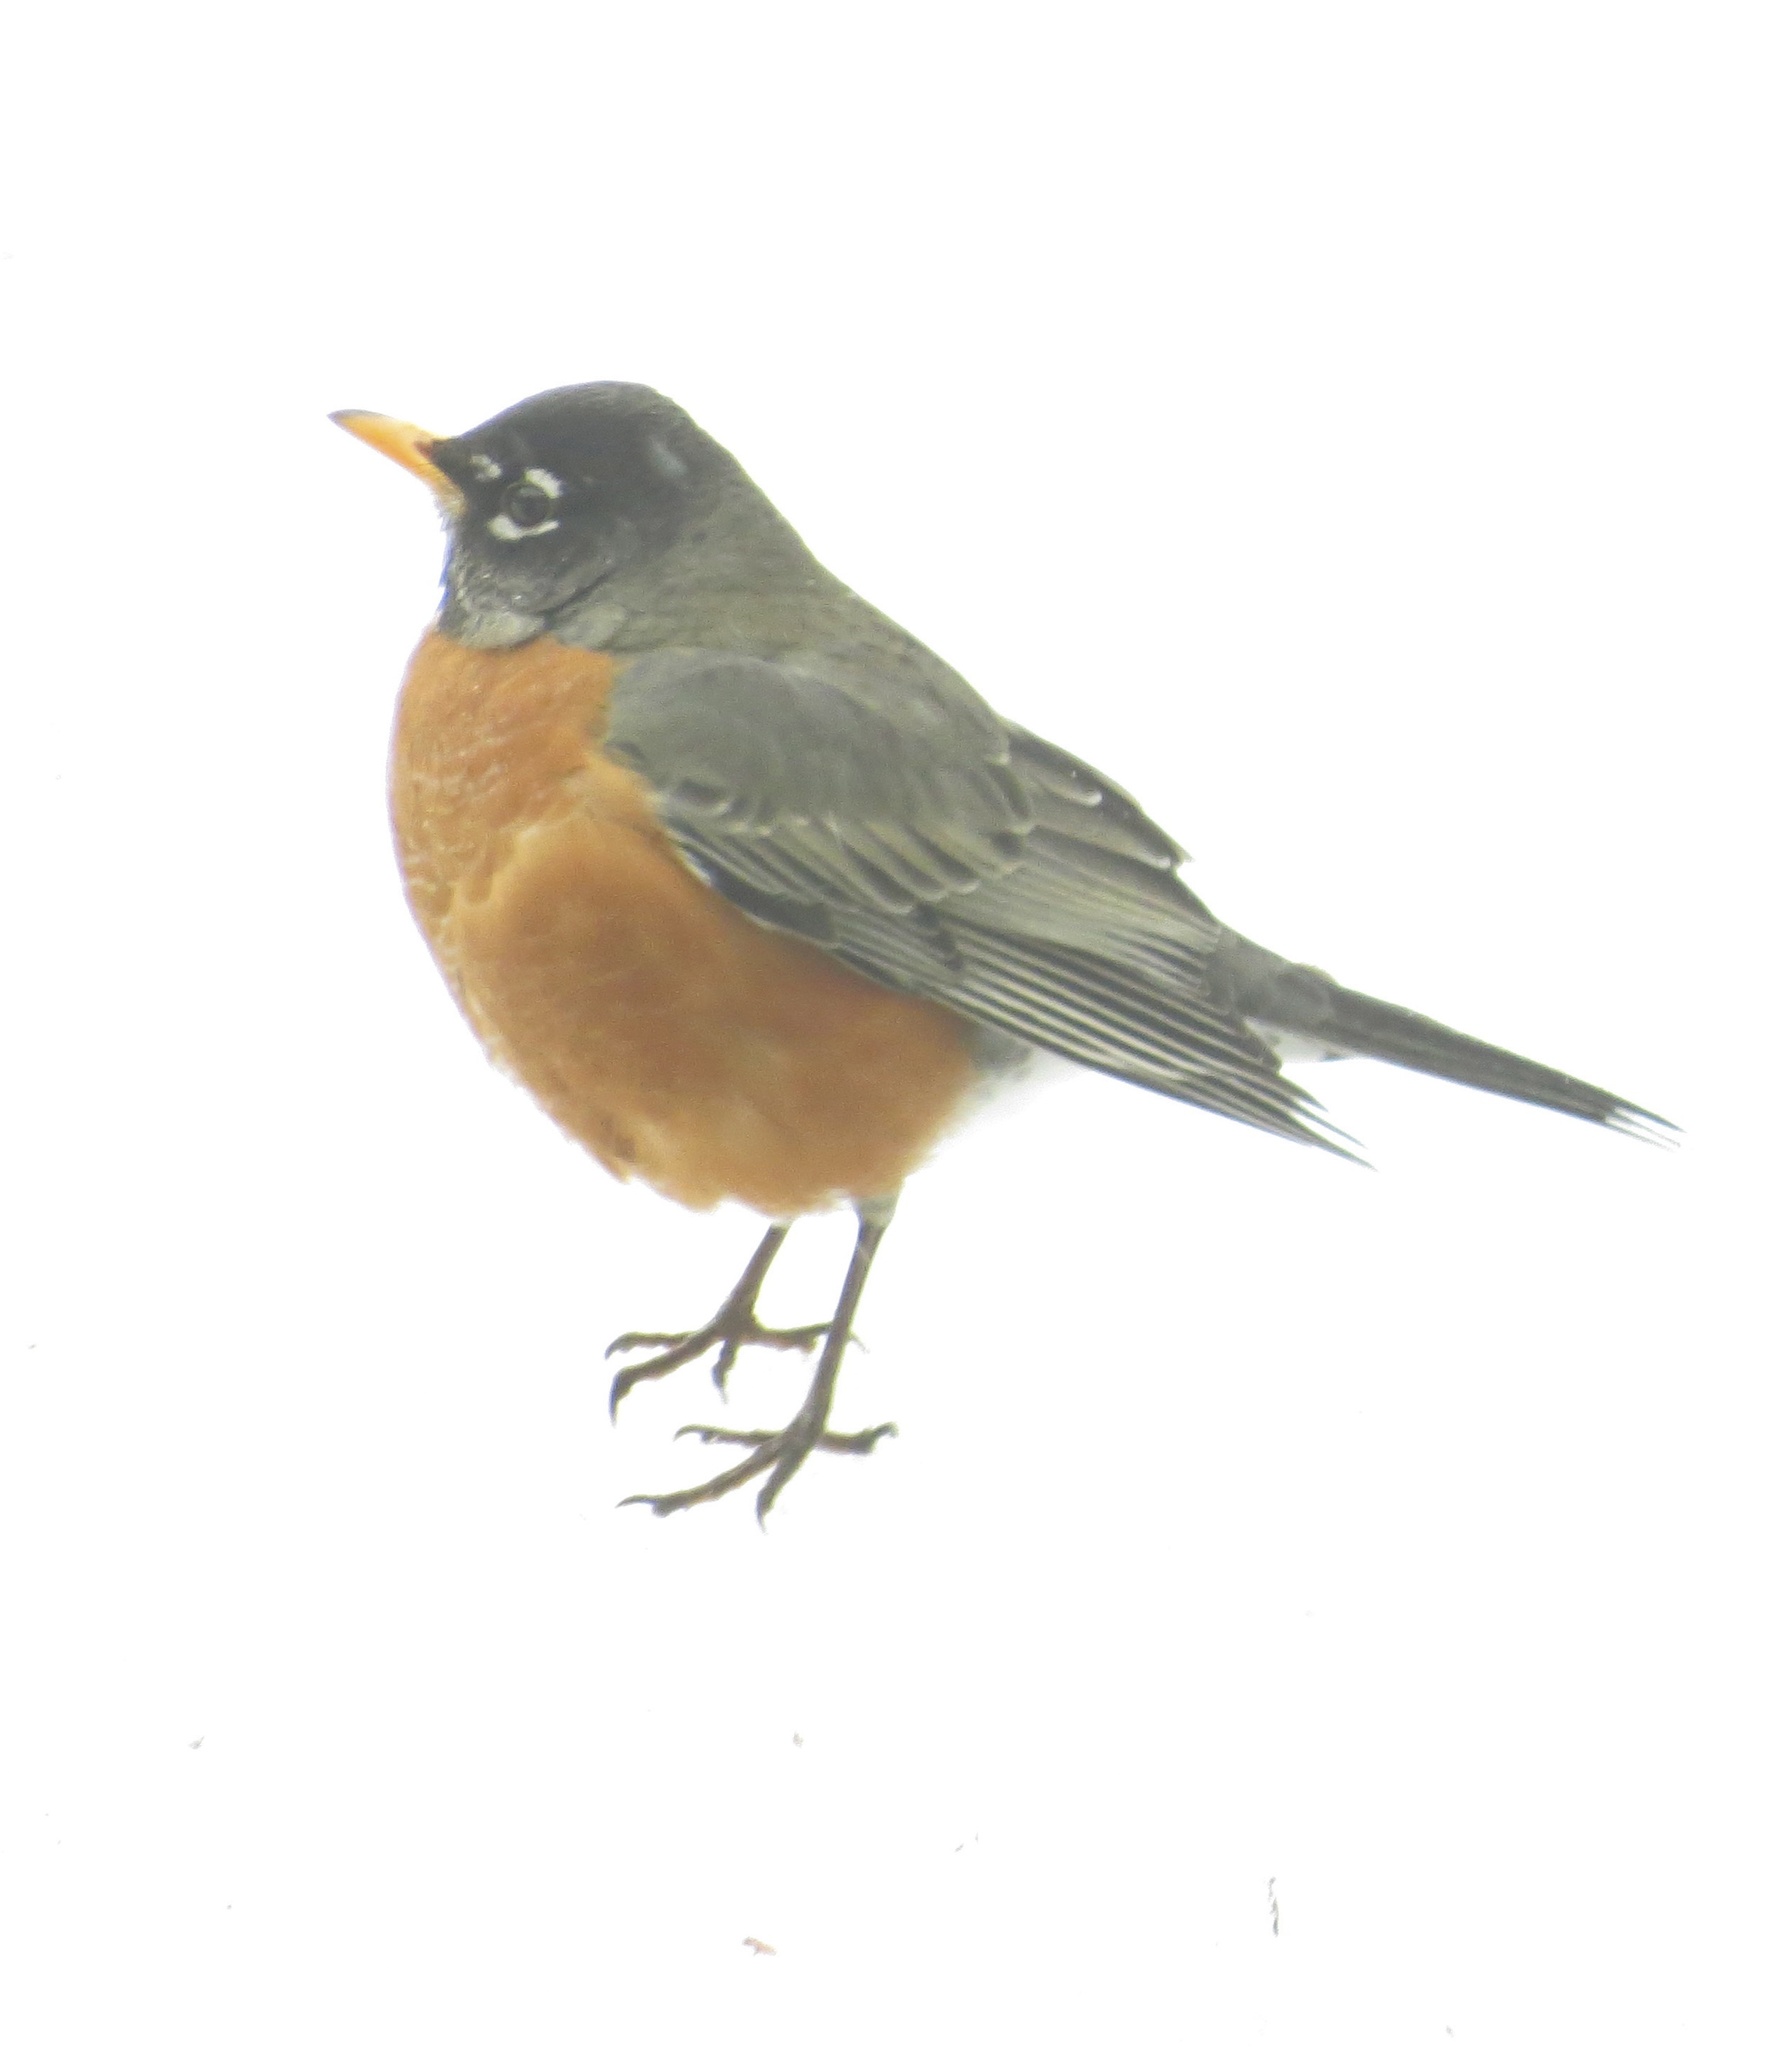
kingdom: Animalia
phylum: Chordata
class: Aves
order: Passeriformes
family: Turdidae
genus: Turdus
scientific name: Turdus migratorius
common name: American robin
